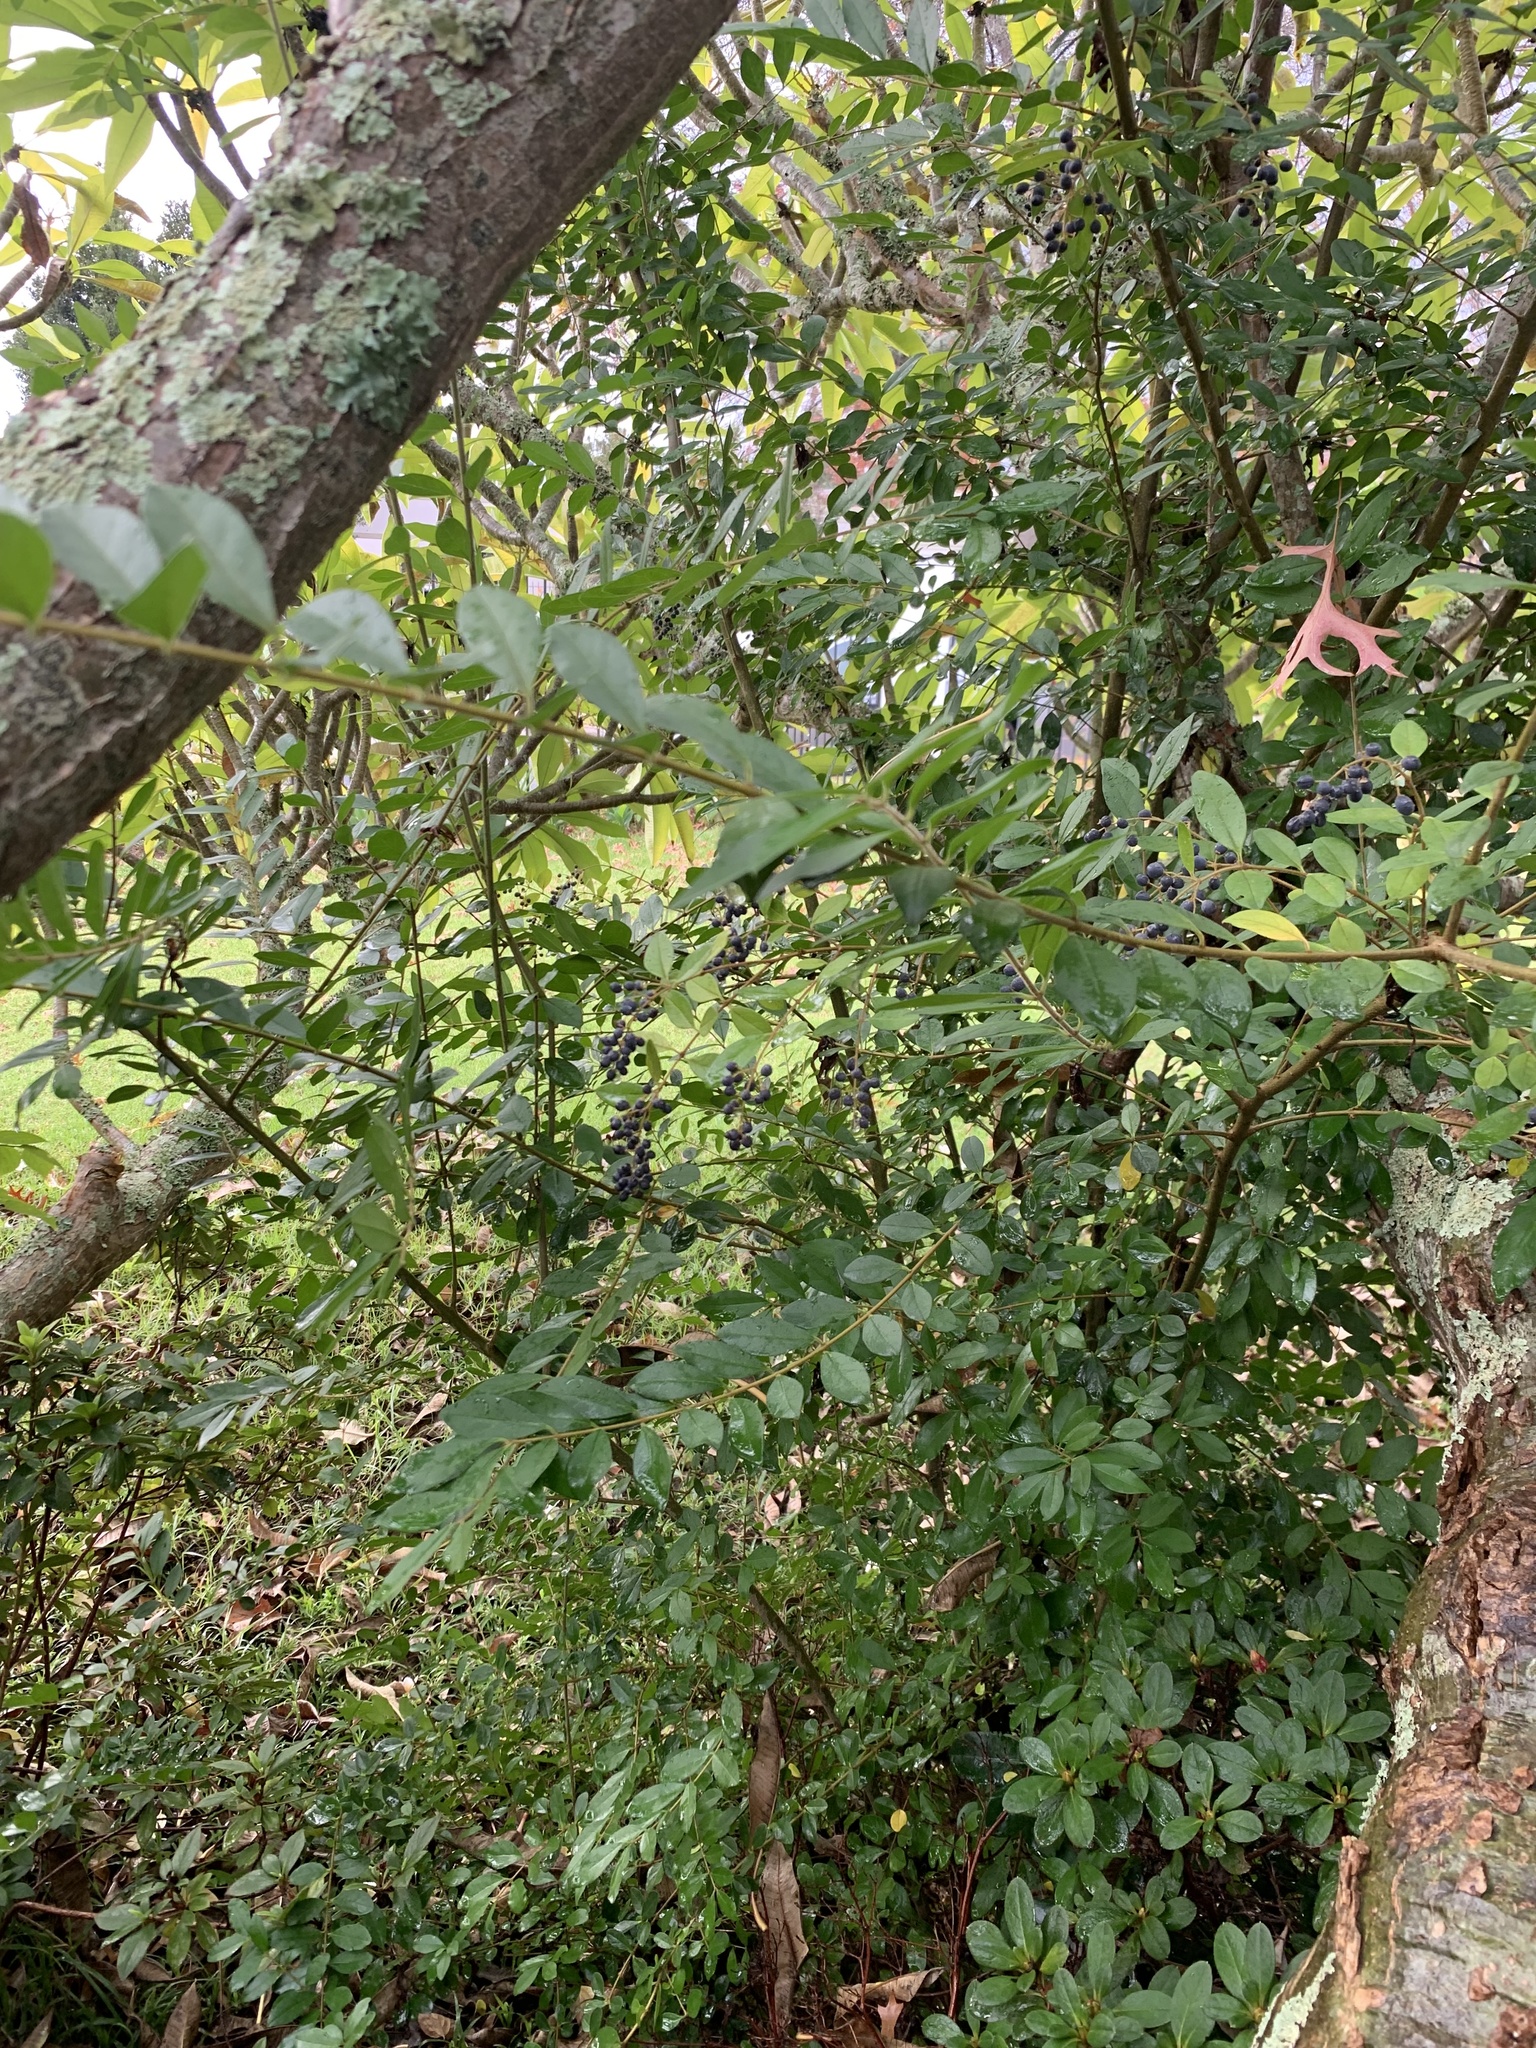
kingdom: Plantae
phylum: Tracheophyta
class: Magnoliopsida
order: Lamiales
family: Oleaceae
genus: Ligustrum
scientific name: Ligustrum sinense
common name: Chinese privet
